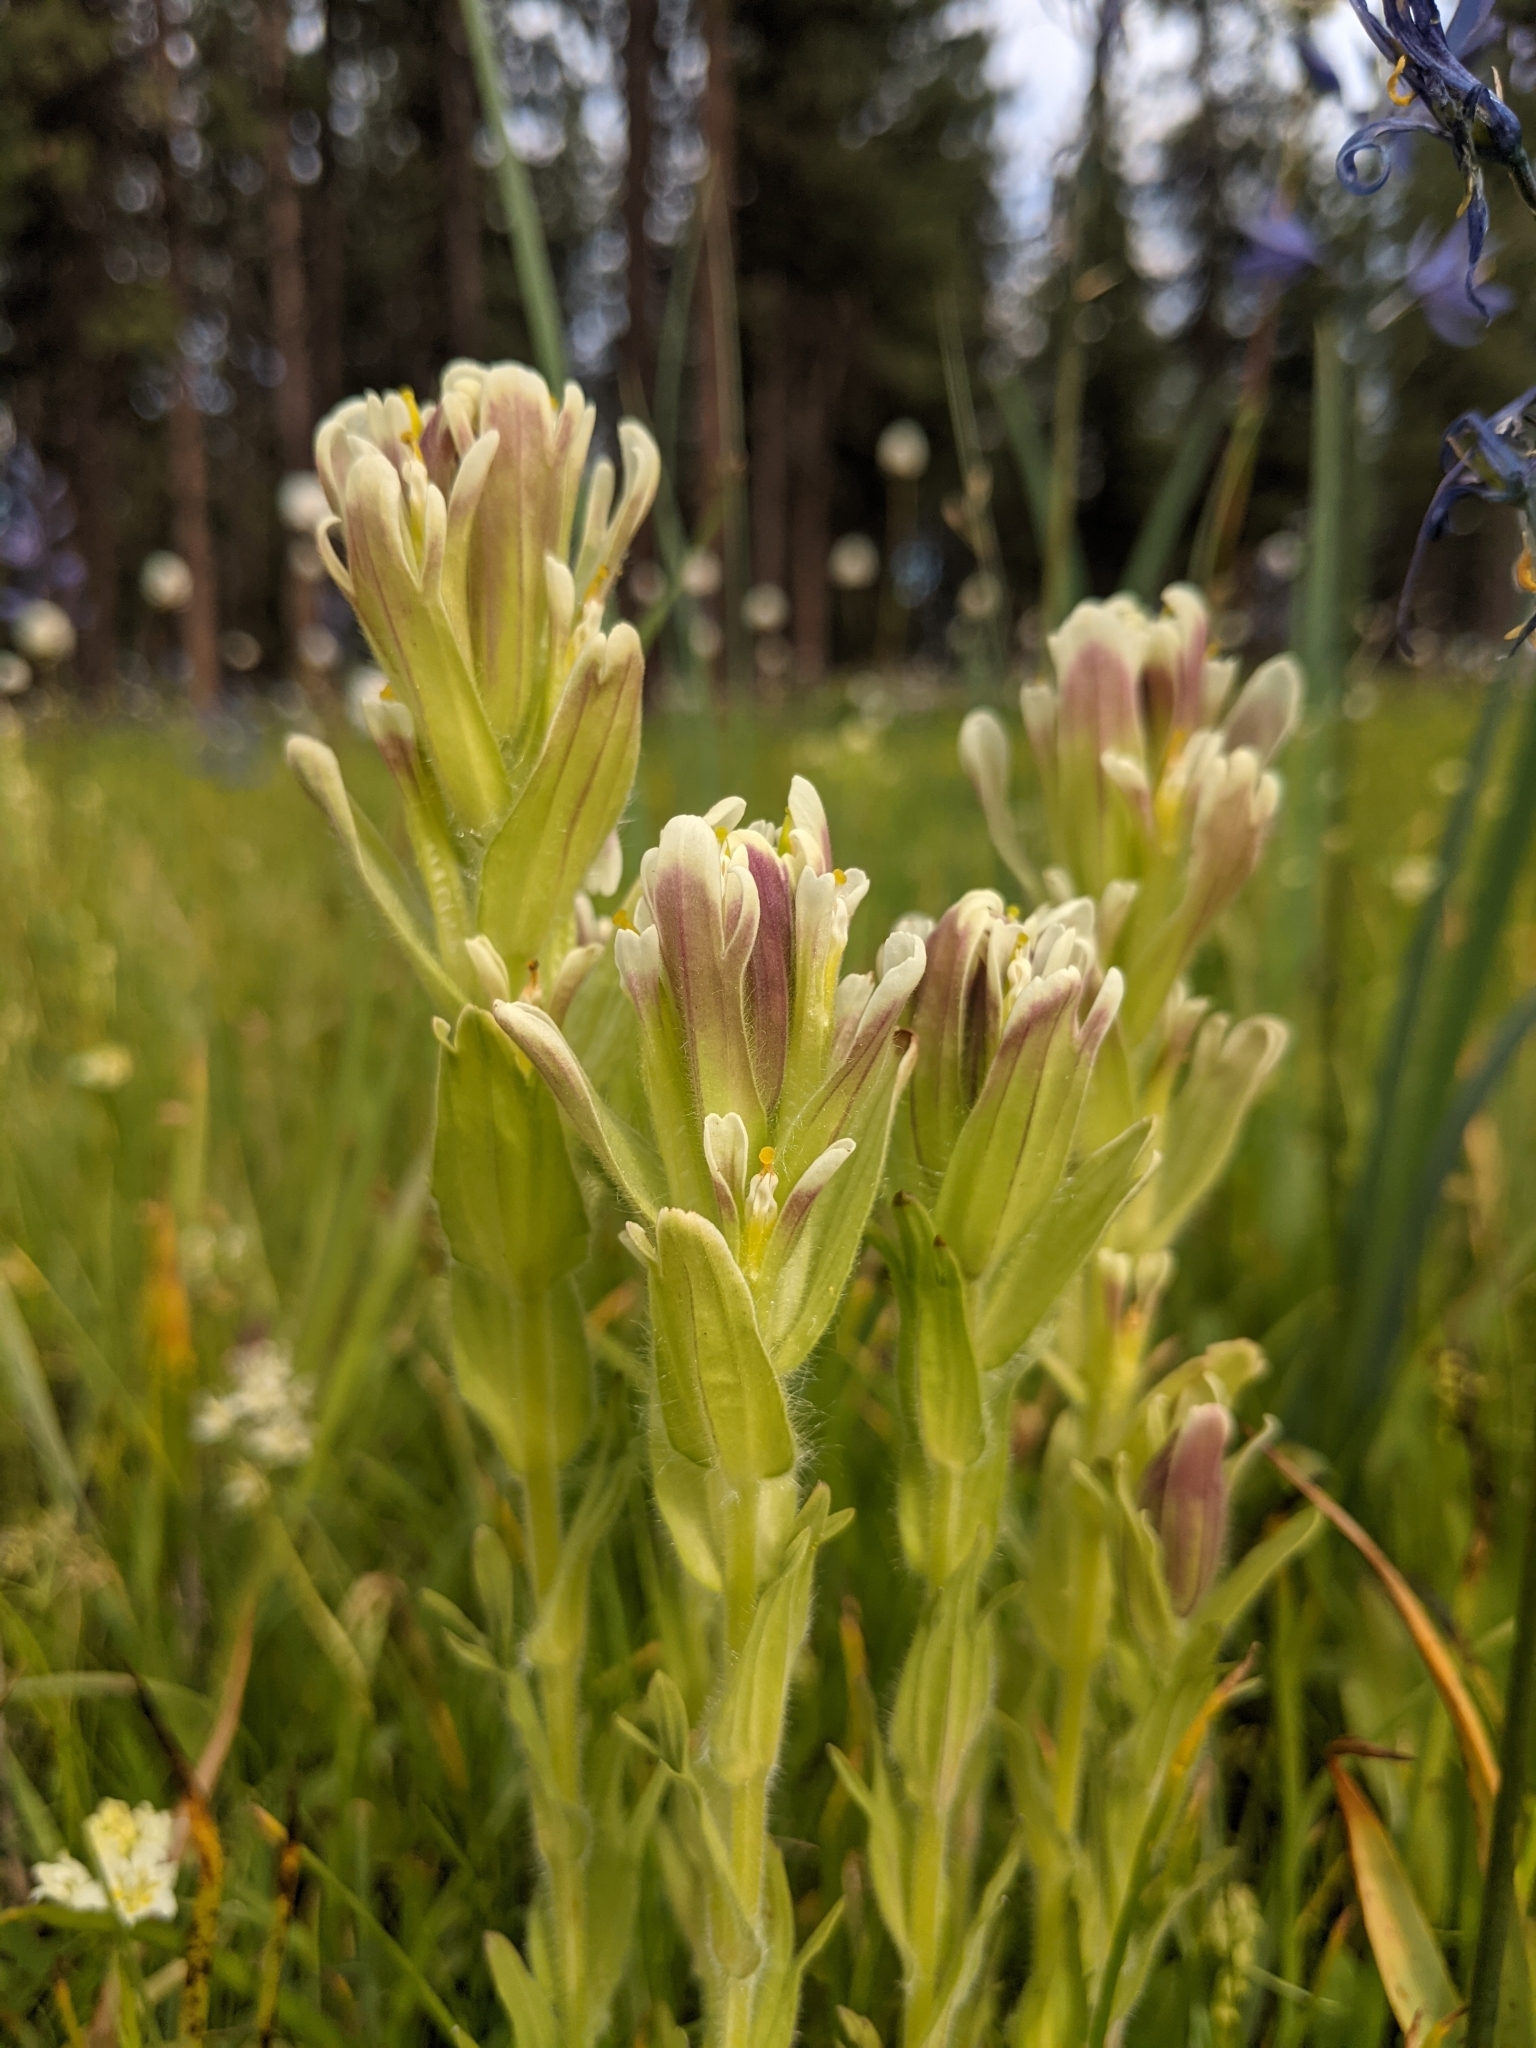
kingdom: Plantae
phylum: Tracheophyta
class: Magnoliopsida
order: Lamiales
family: Orobanchaceae
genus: Castilleja
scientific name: Castilleja cusickii
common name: Cusick's paintbrush
